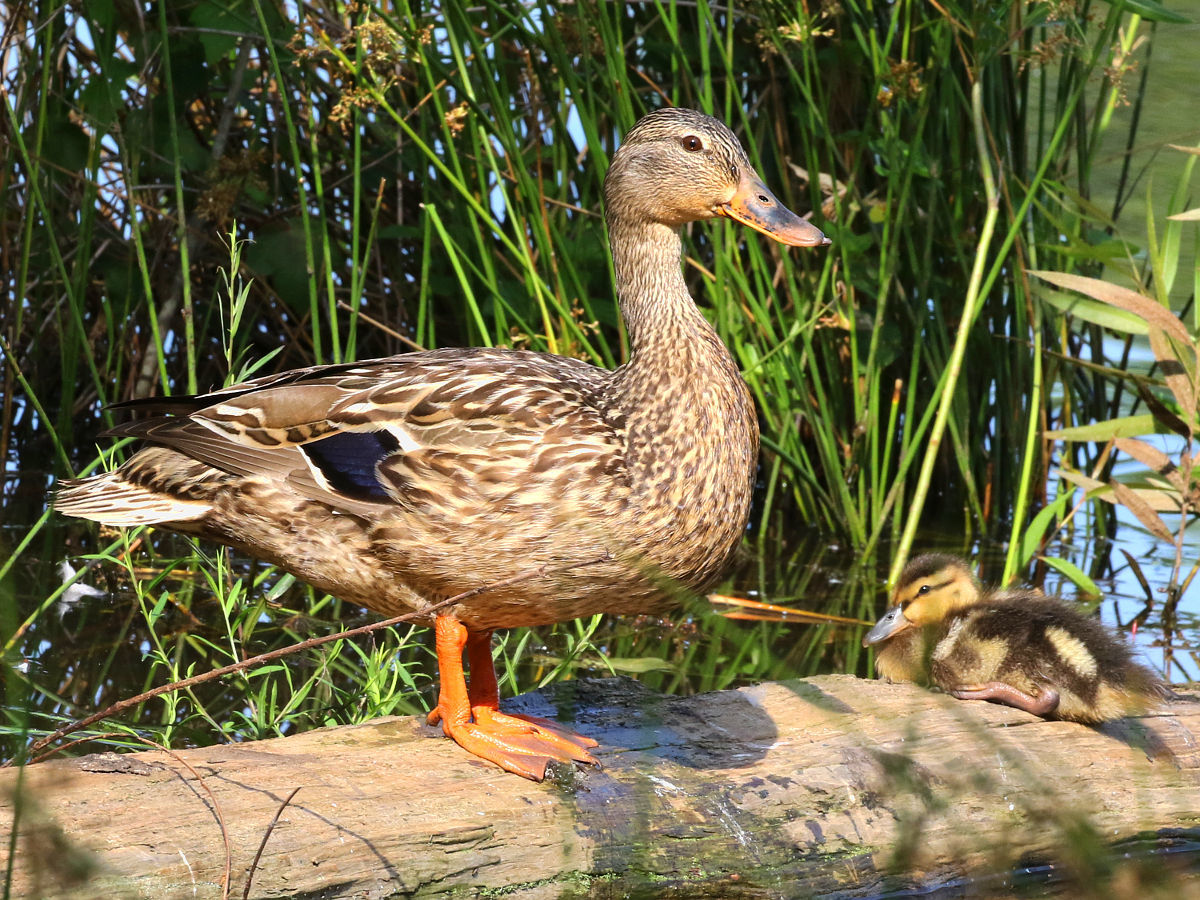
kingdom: Animalia
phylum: Chordata
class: Aves
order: Anseriformes
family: Anatidae
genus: Anas
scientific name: Anas platyrhynchos
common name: Mallard
